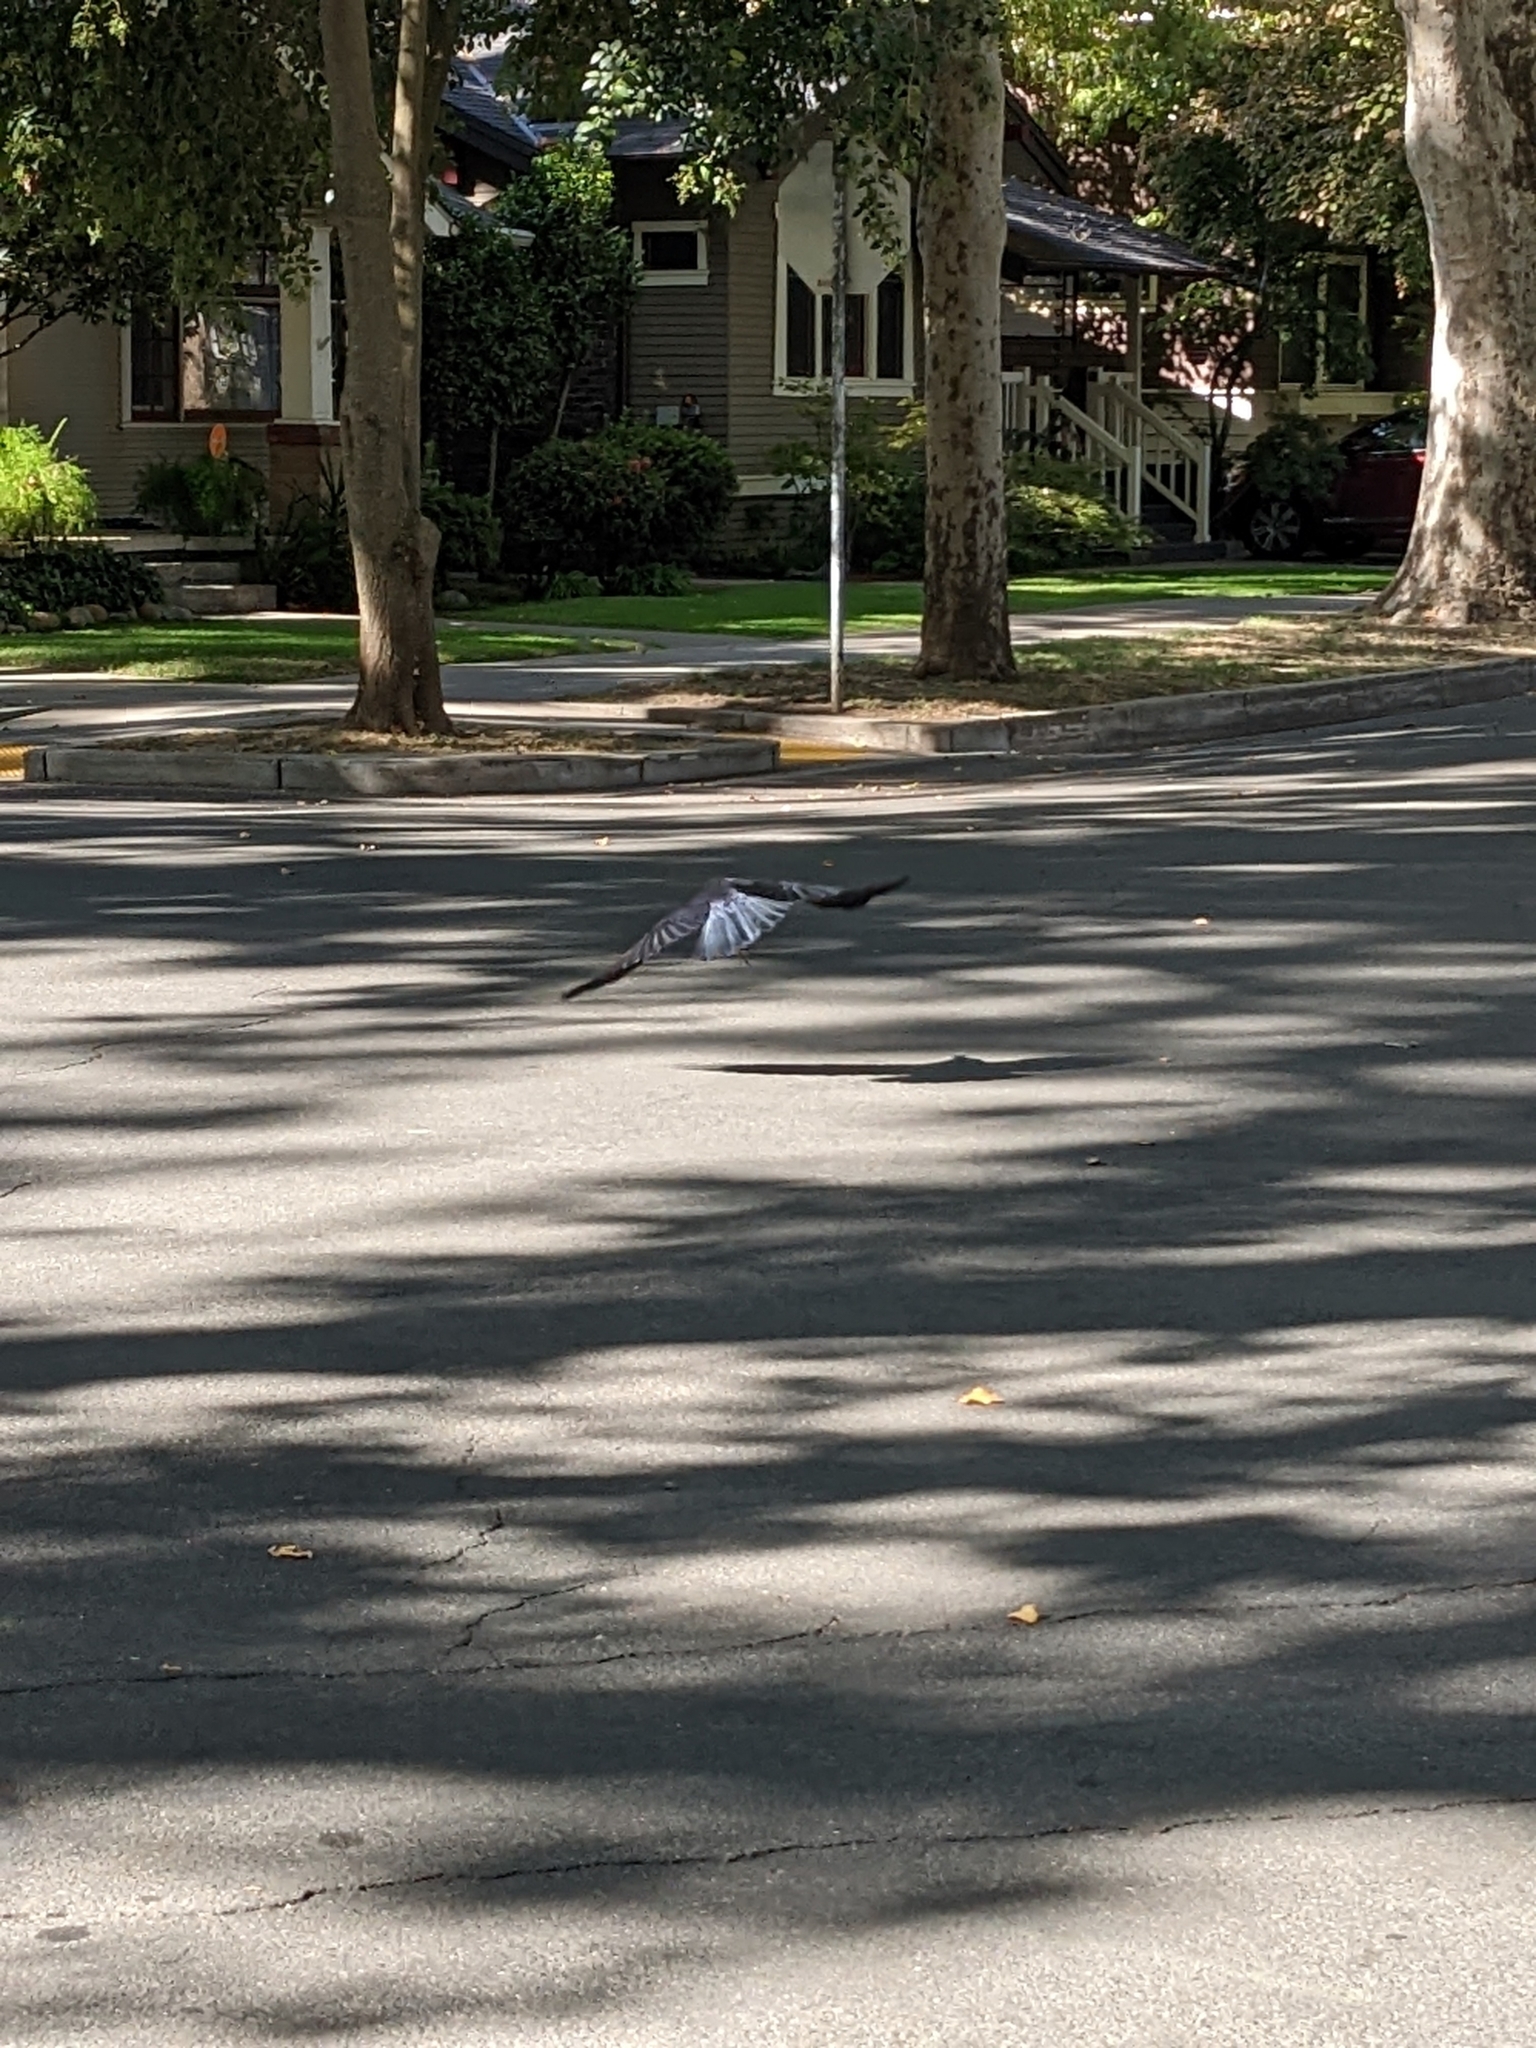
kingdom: Animalia
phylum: Chordata
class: Aves
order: Passeriformes
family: Corvidae
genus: Corvus
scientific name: Corvus brachyrhynchos
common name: American crow
